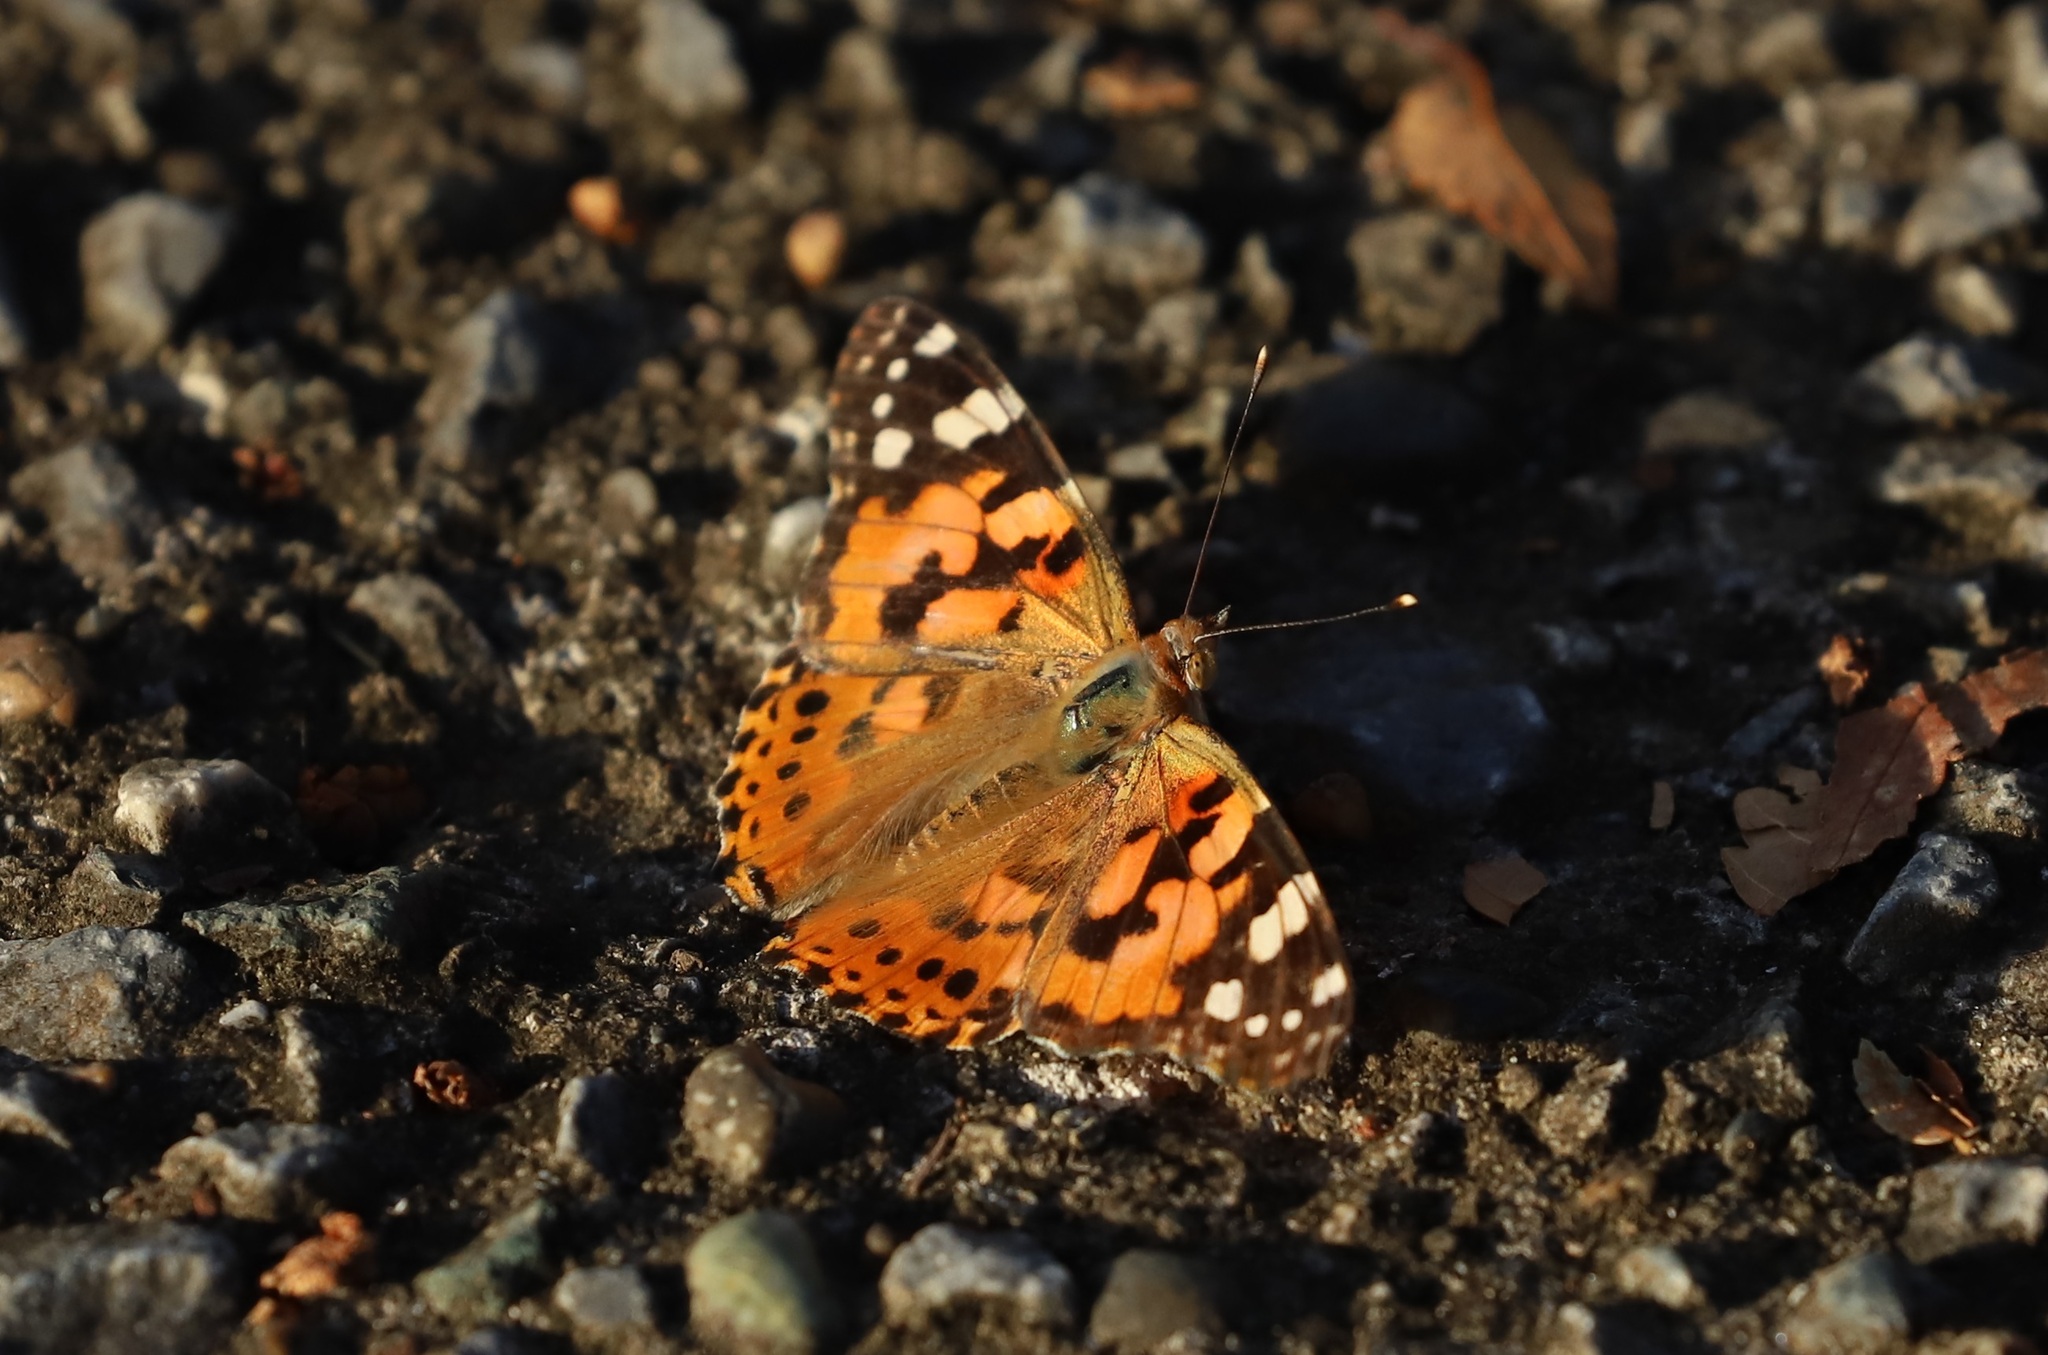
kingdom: Animalia
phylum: Arthropoda
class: Insecta
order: Lepidoptera
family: Nymphalidae
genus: Vanessa
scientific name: Vanessa cardui
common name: Painted lady
